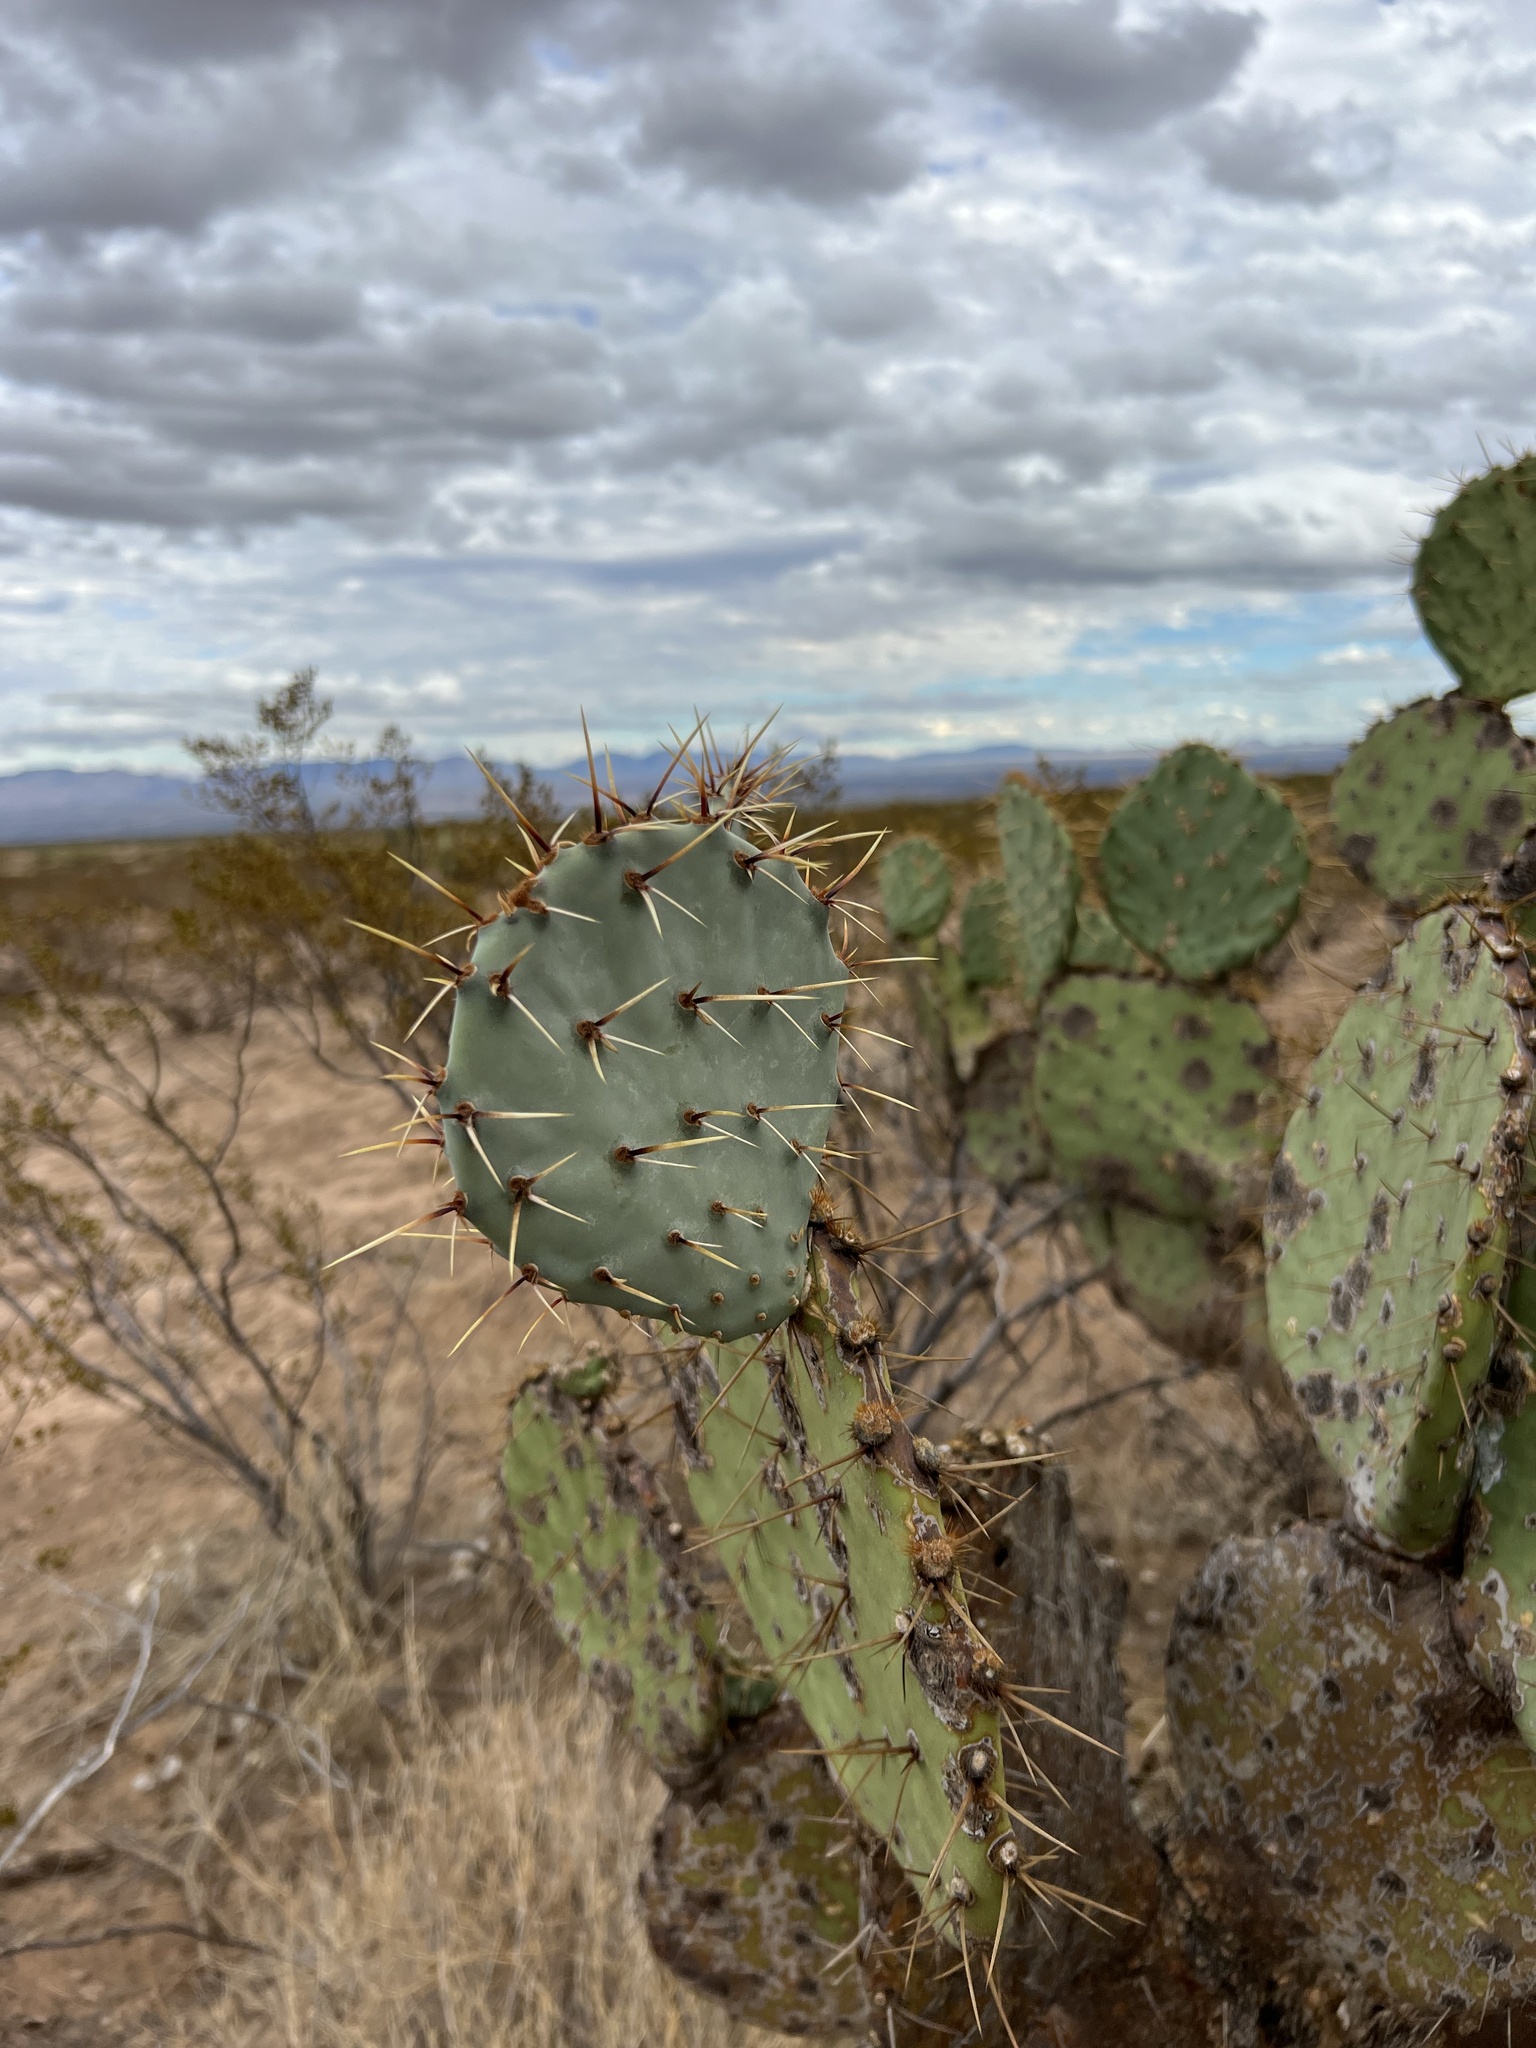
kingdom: Plantae
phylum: Tracheophyta
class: Magnoliopsida
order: Caryophyllales
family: Cactaceae
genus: Opuntia
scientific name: Opuntia engelmannii
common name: Cactus-apple
